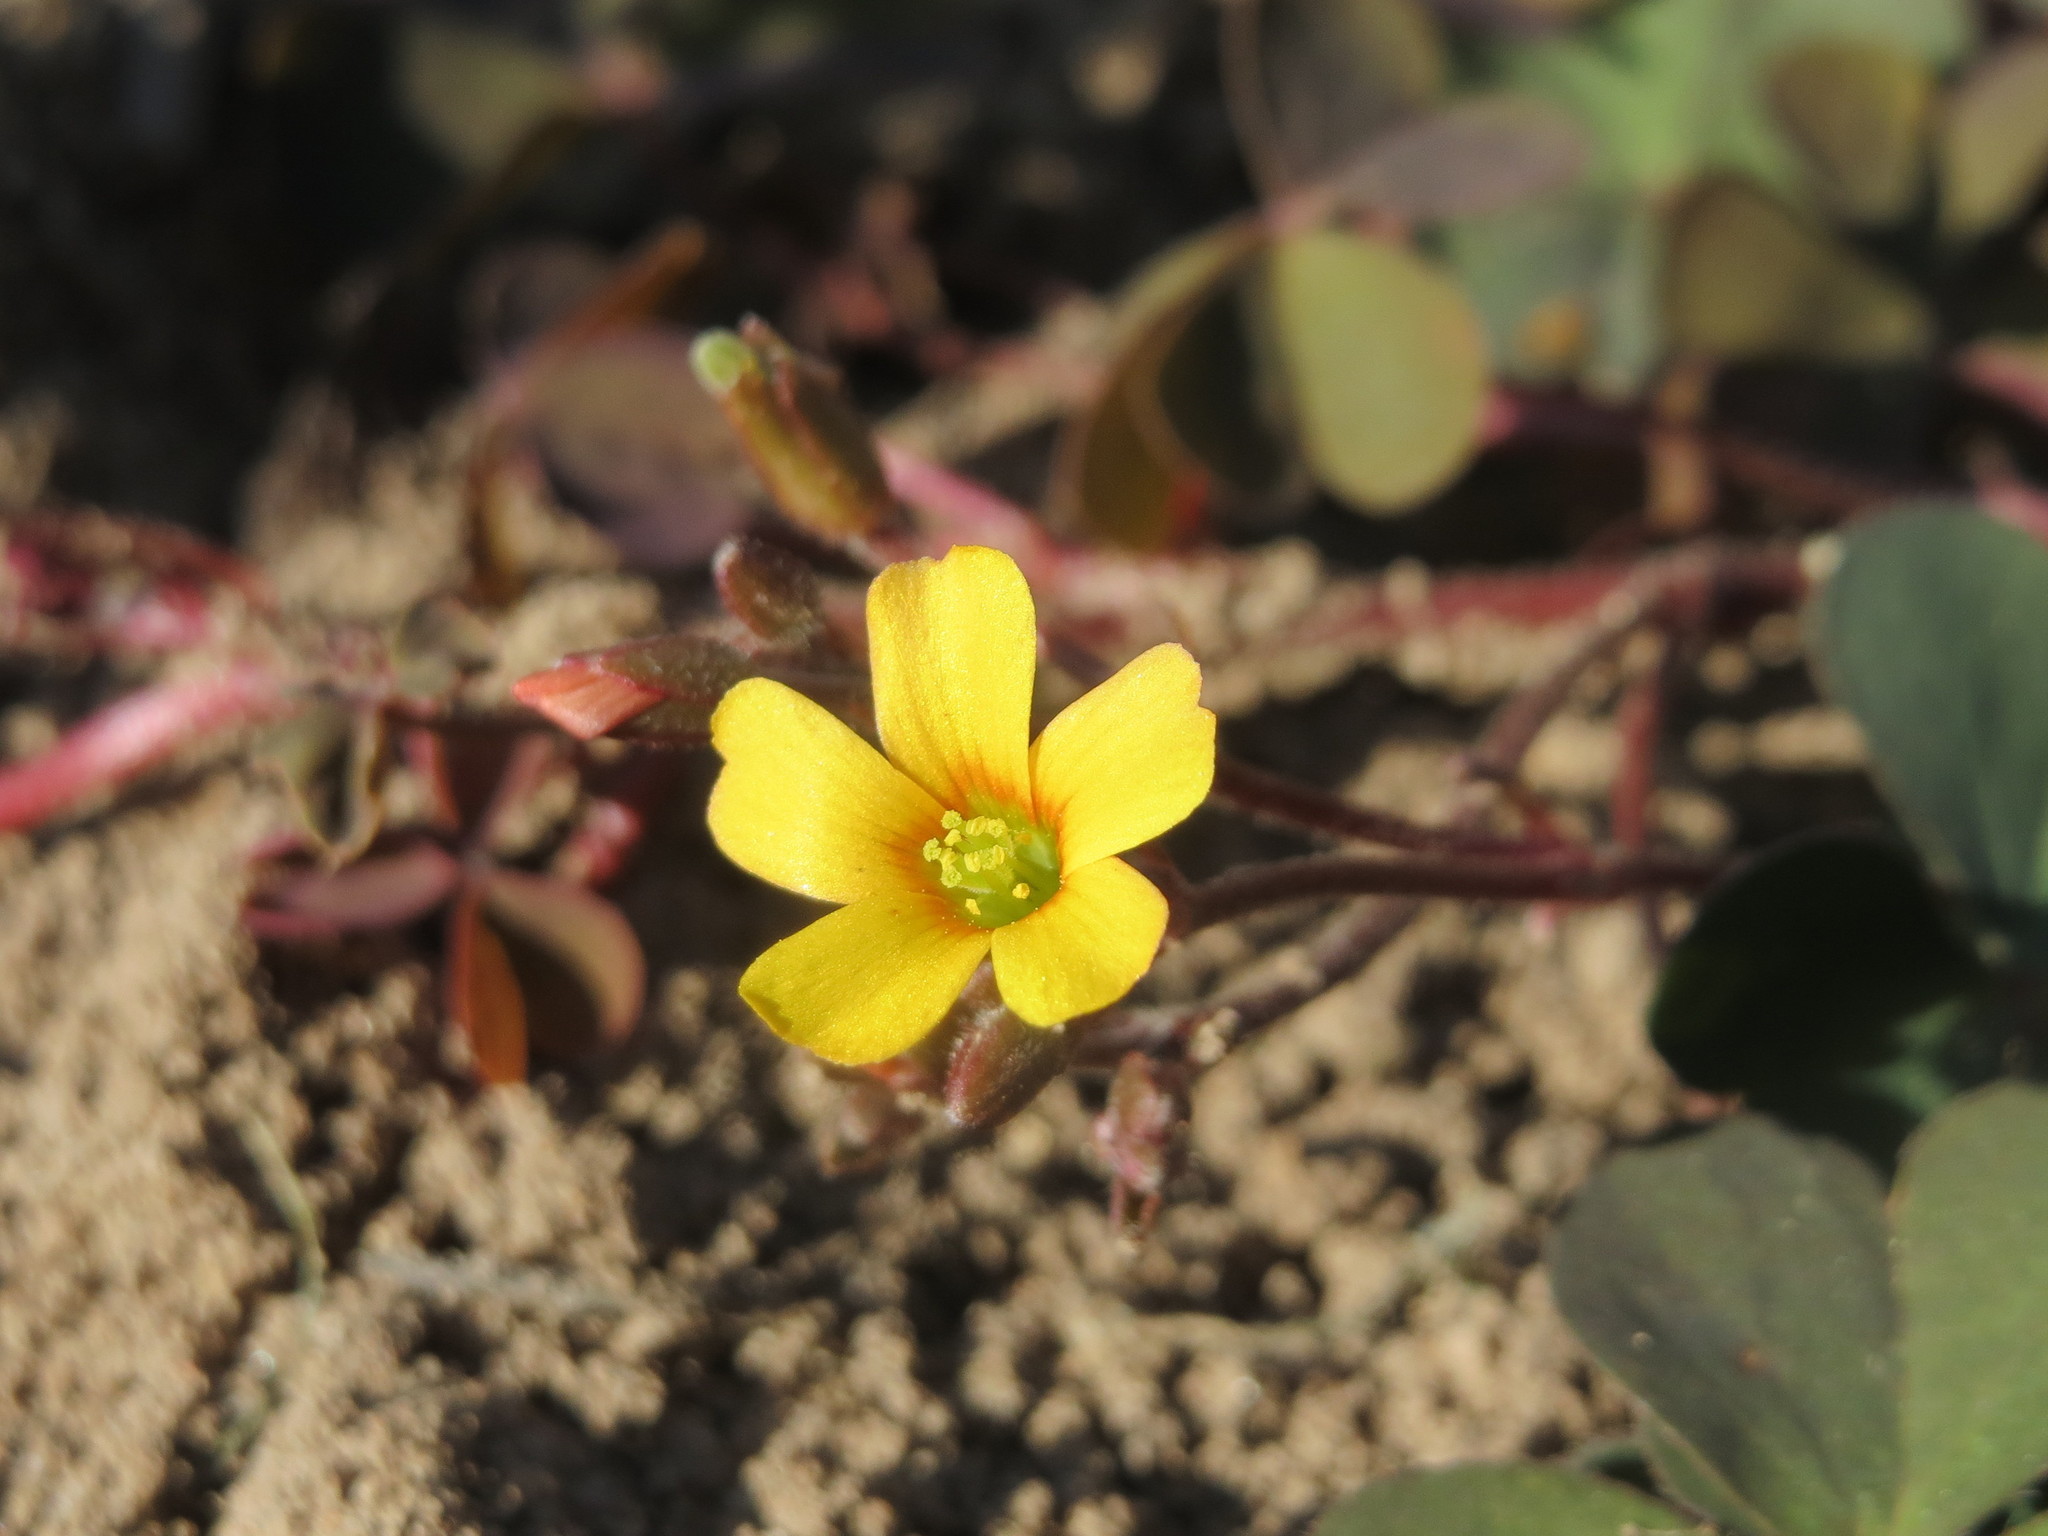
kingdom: Plantae
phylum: Tracheophyta
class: Magnoliopsida
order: Oxalidales
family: Oxalidaceae
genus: Oxalis
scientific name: Oxalis corniculata
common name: Procumbent yellow-sorrel
